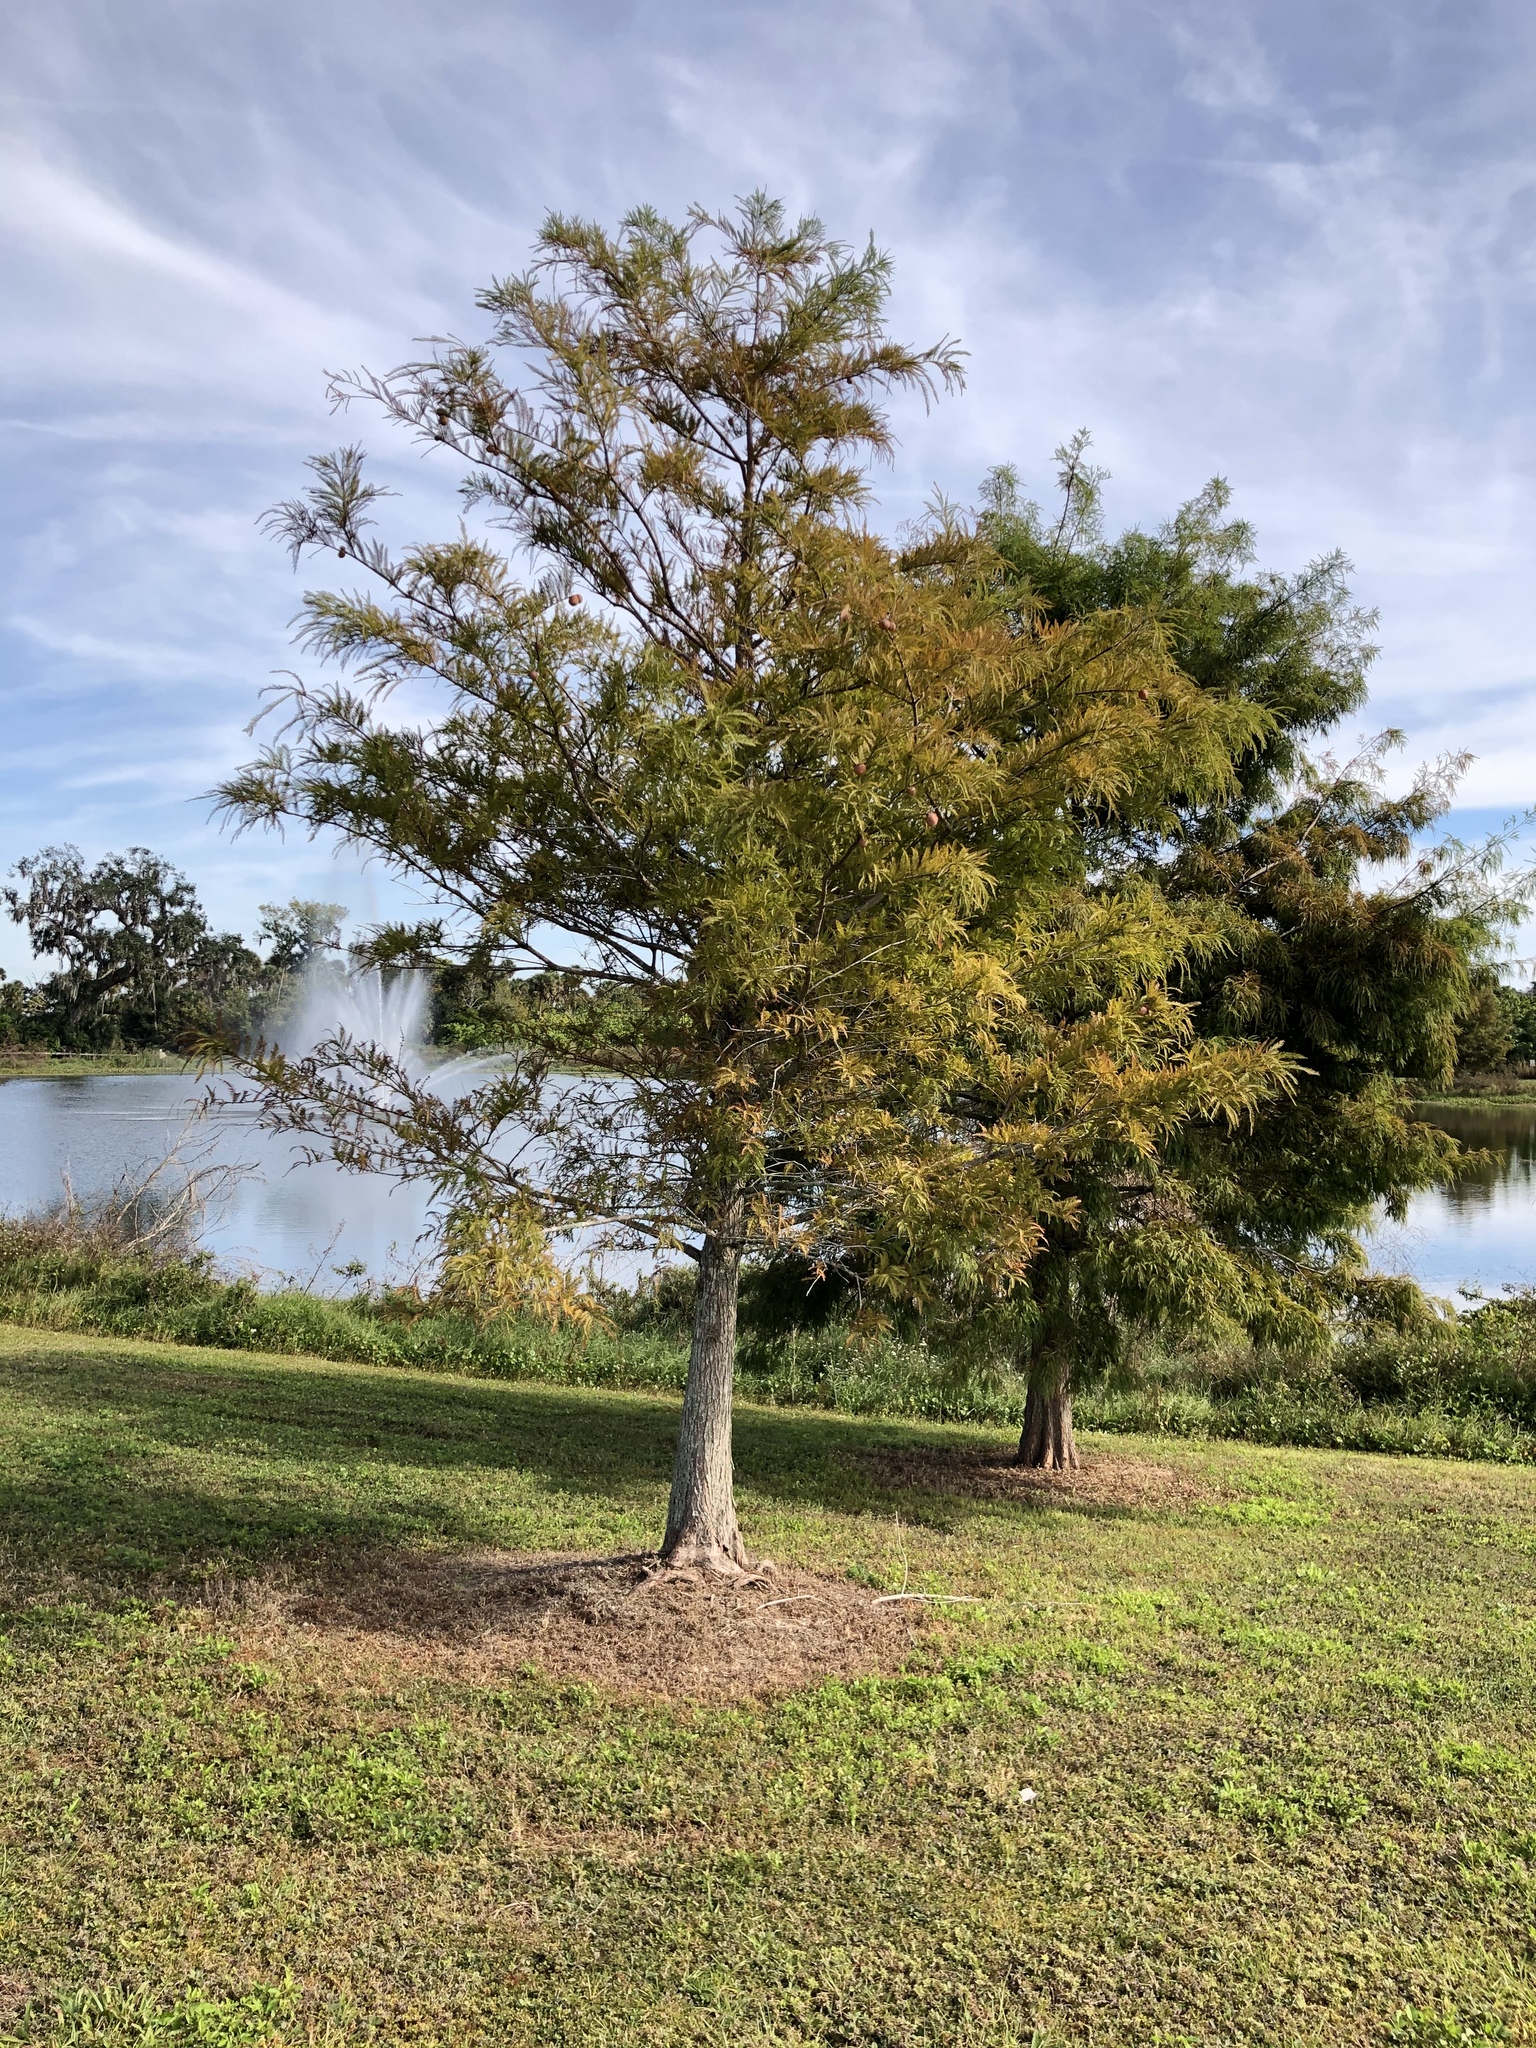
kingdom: Plantae
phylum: Tracheophyta
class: Pinopsida
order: Pinales
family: Cupressaceae
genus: Taxodium
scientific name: Taxodium distichum
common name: Bald cypress
